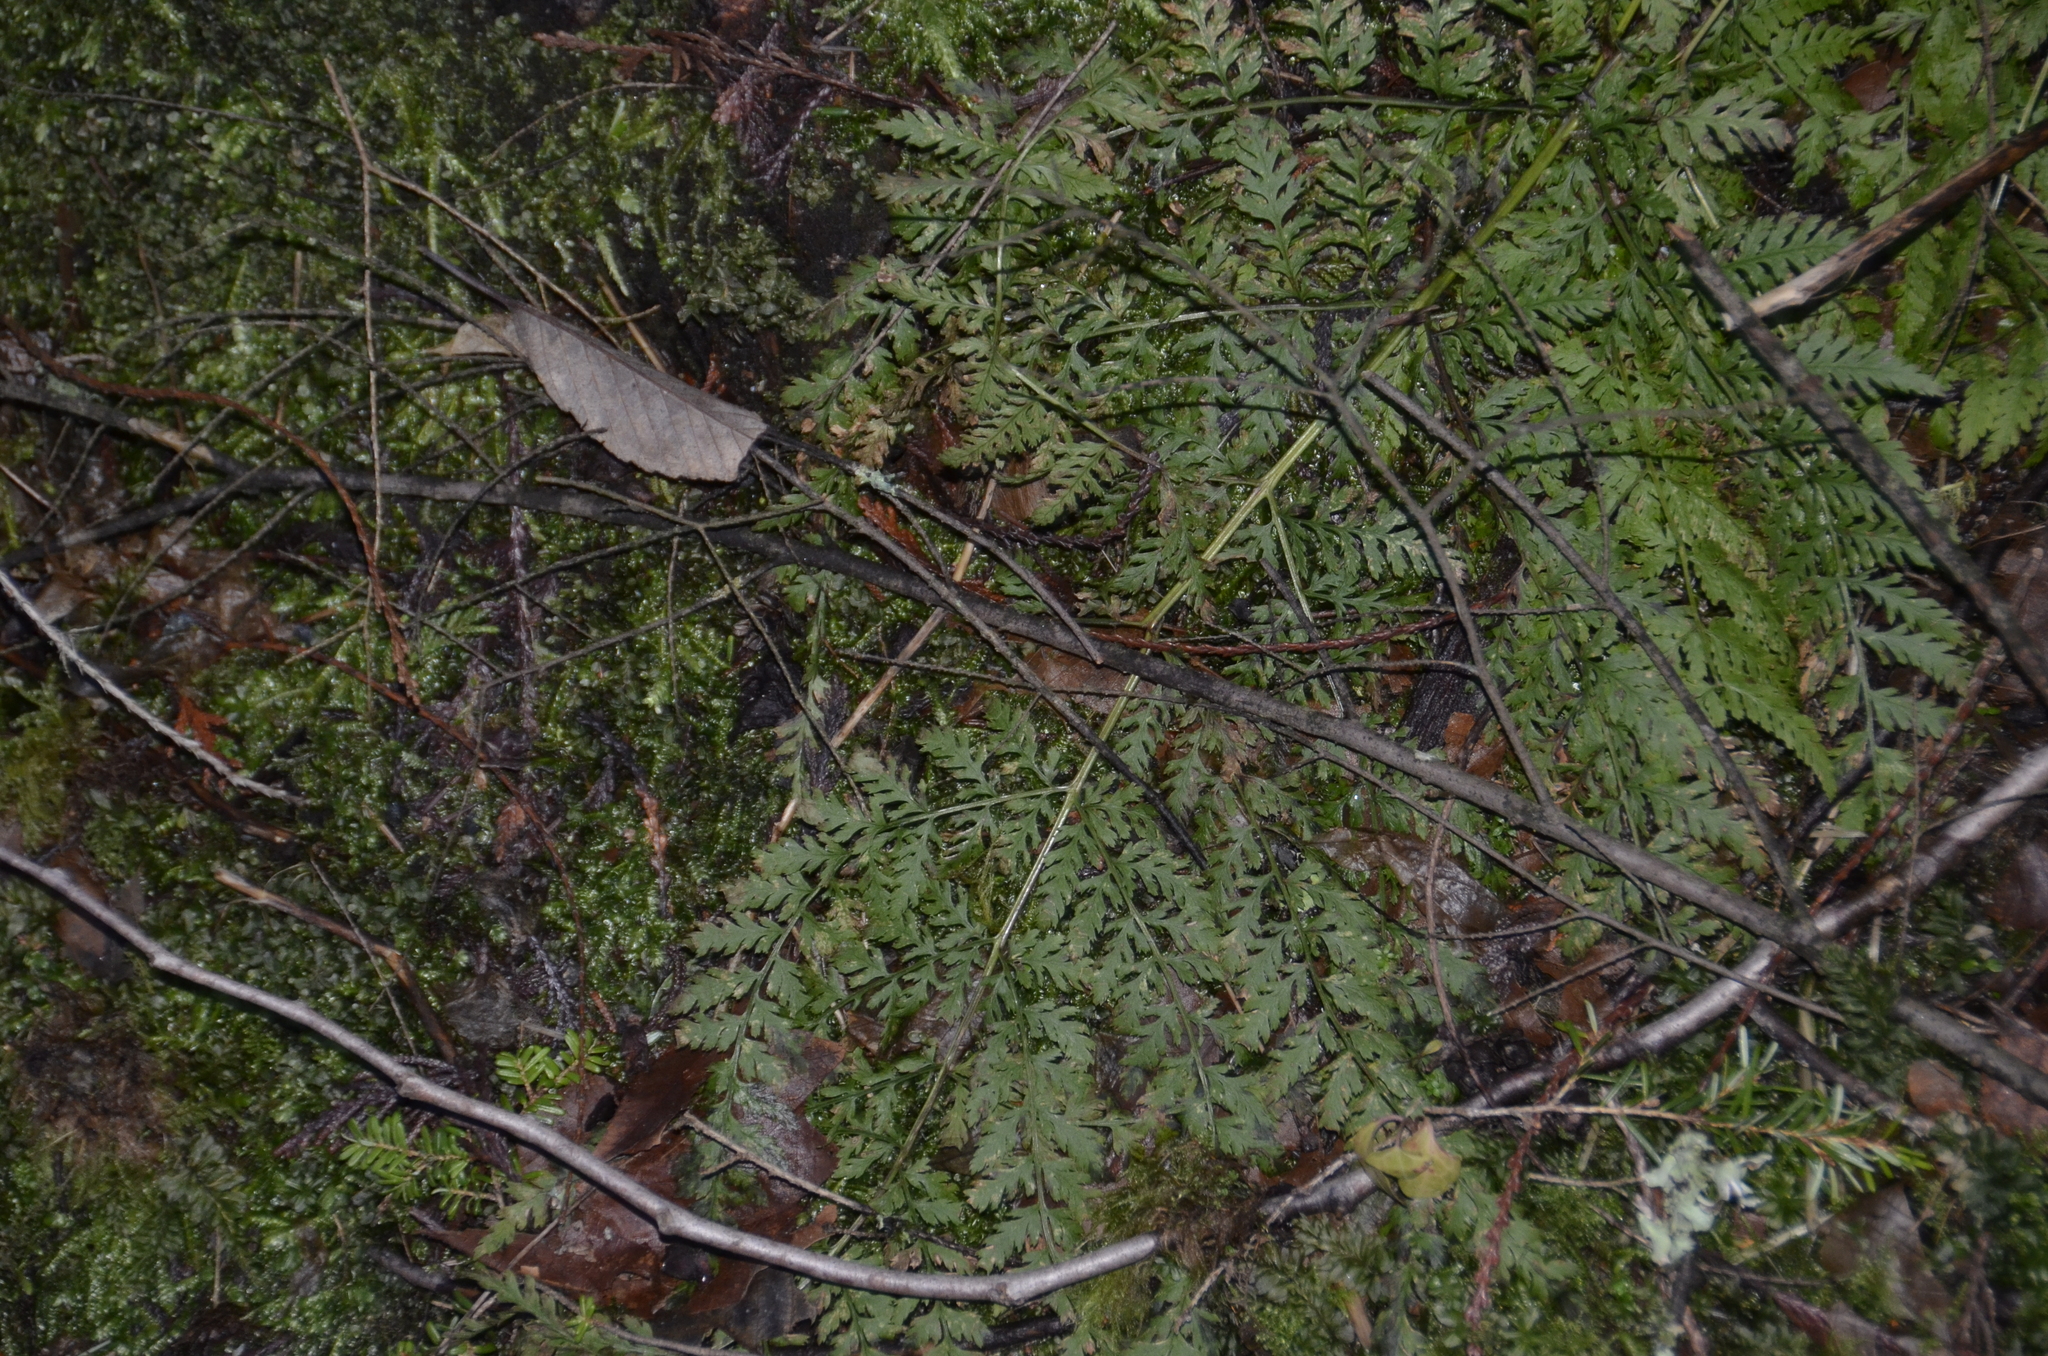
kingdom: Plantae
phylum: Tracheophyta
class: Polypodiopsida
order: Polypodiales
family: Dryopteridaceae
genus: Dryopteris
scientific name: Dryopteris expansa
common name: Northern buckler fern
